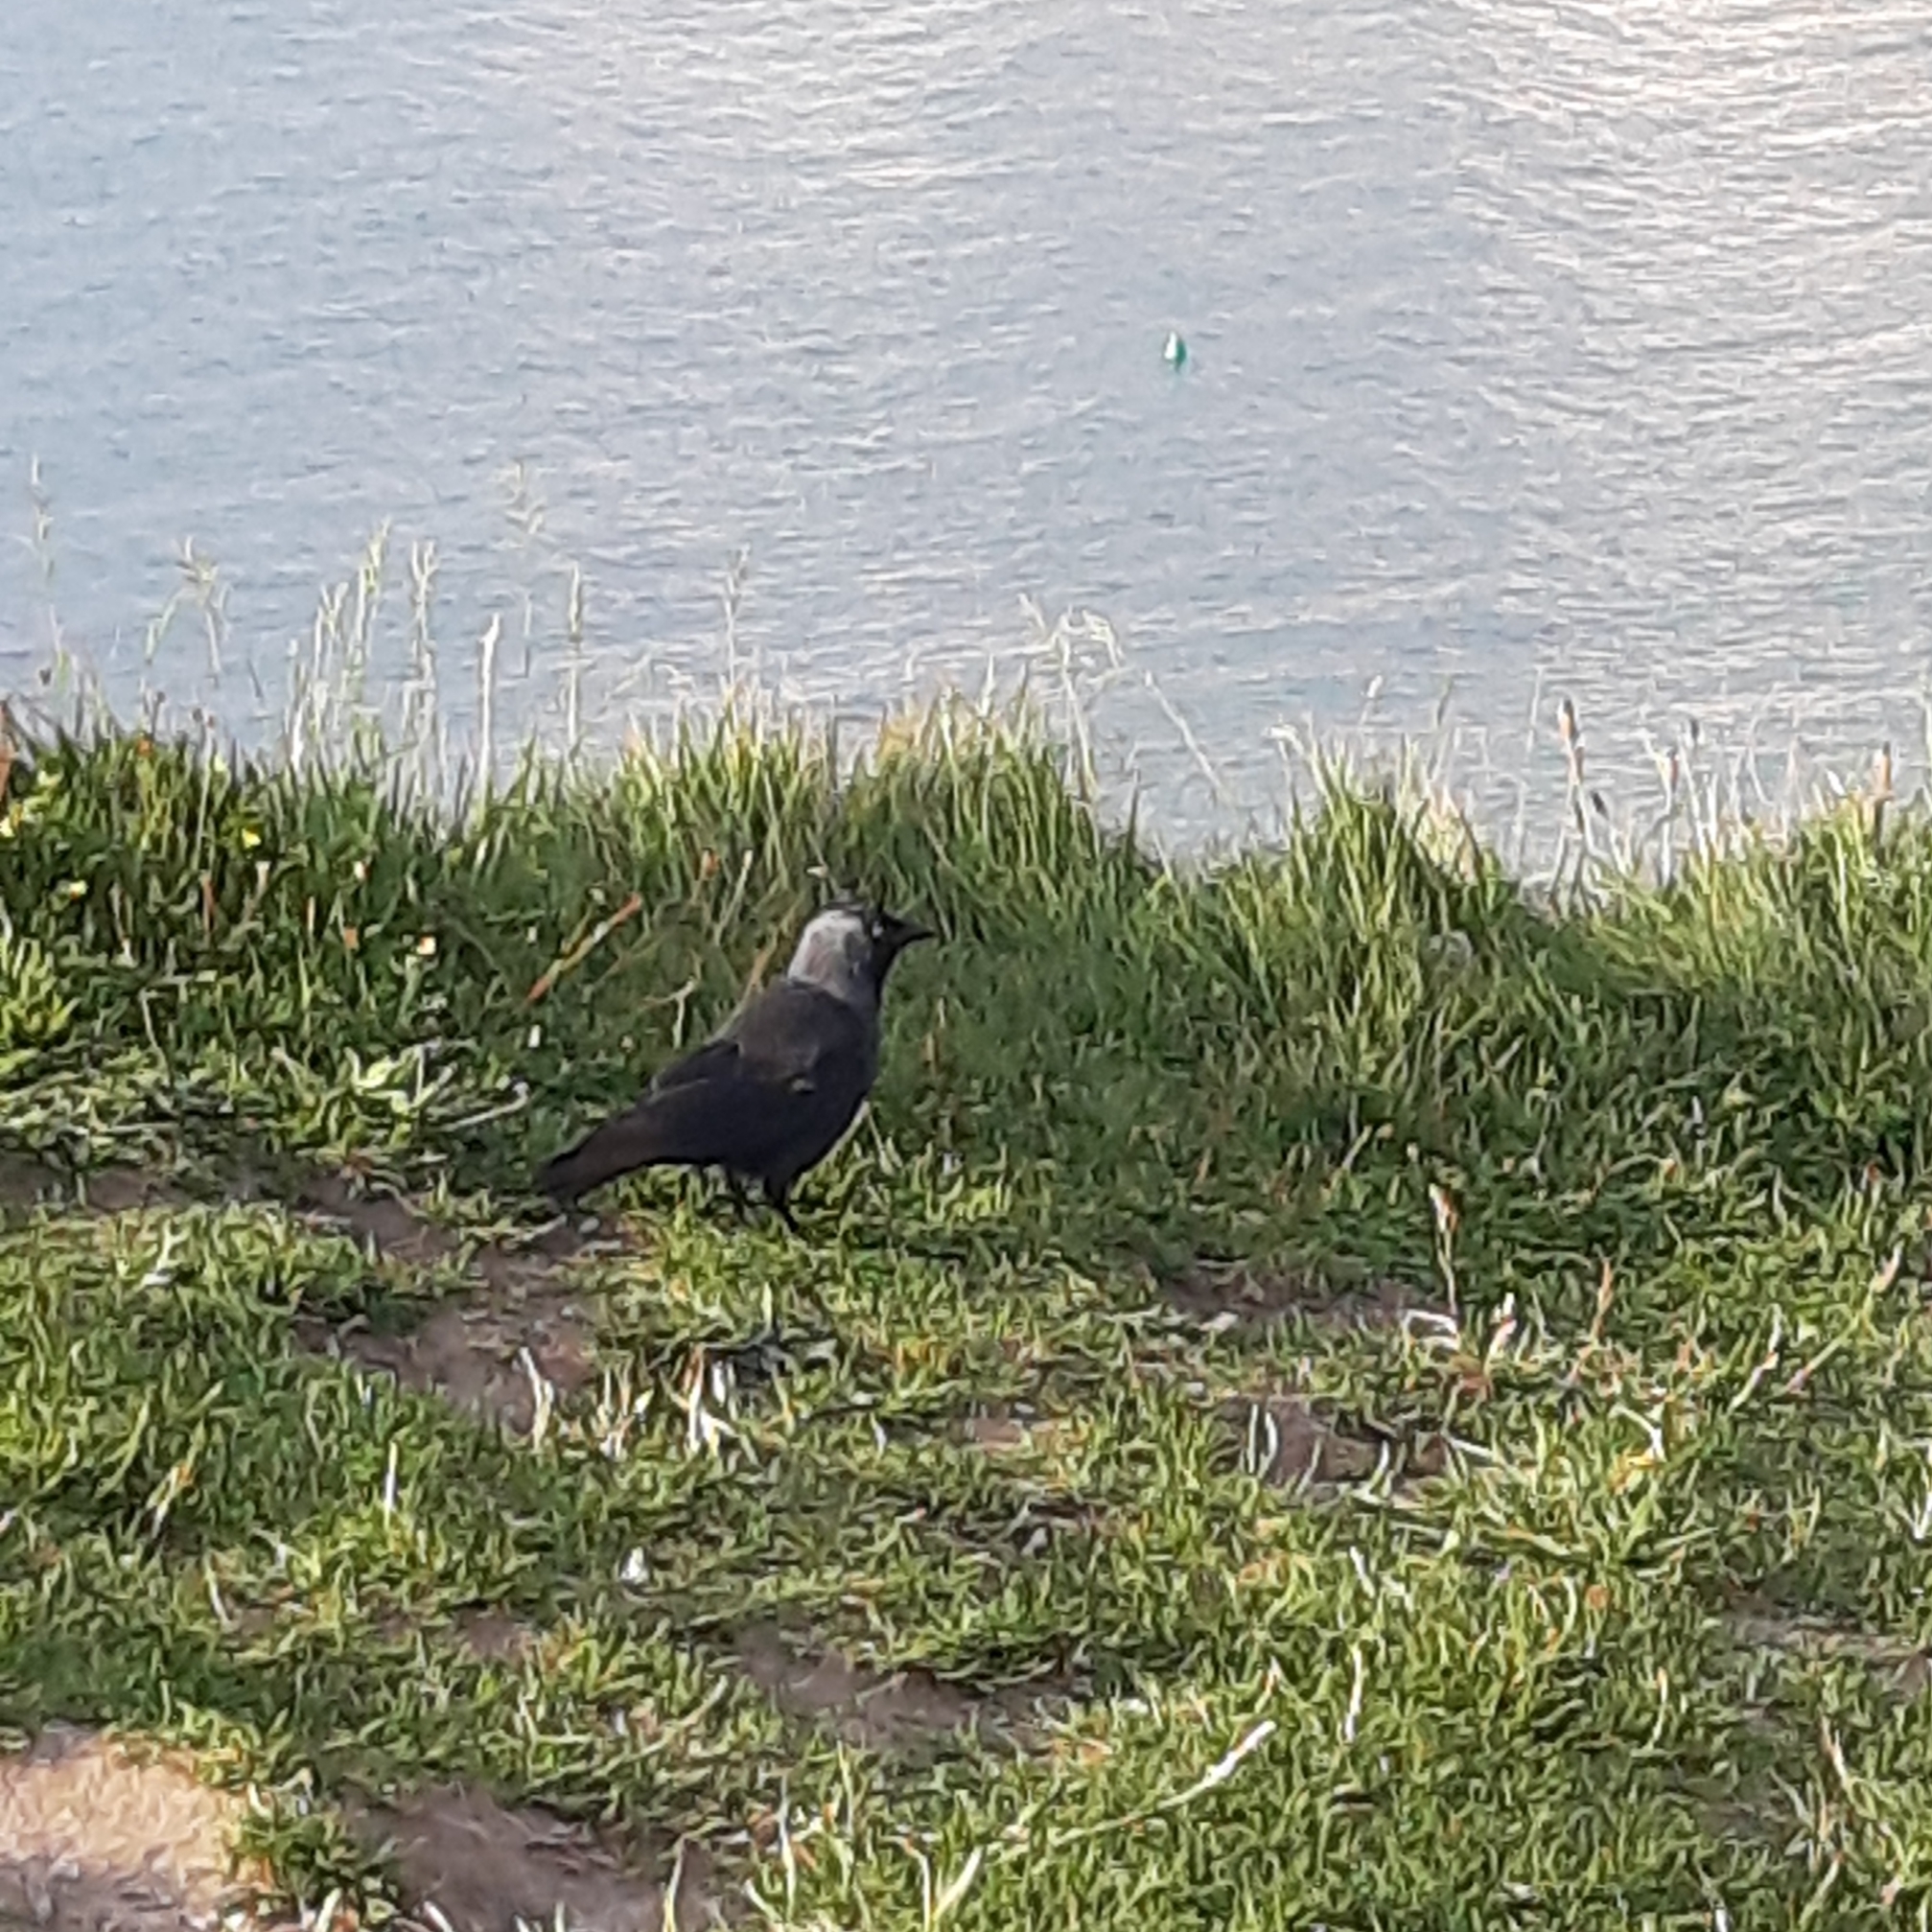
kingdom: Animalia
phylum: Chordata
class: Aves
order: Passeriformes
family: Corvidae
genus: Coloeus
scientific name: Coloeus monedula
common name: Western jackdaw
